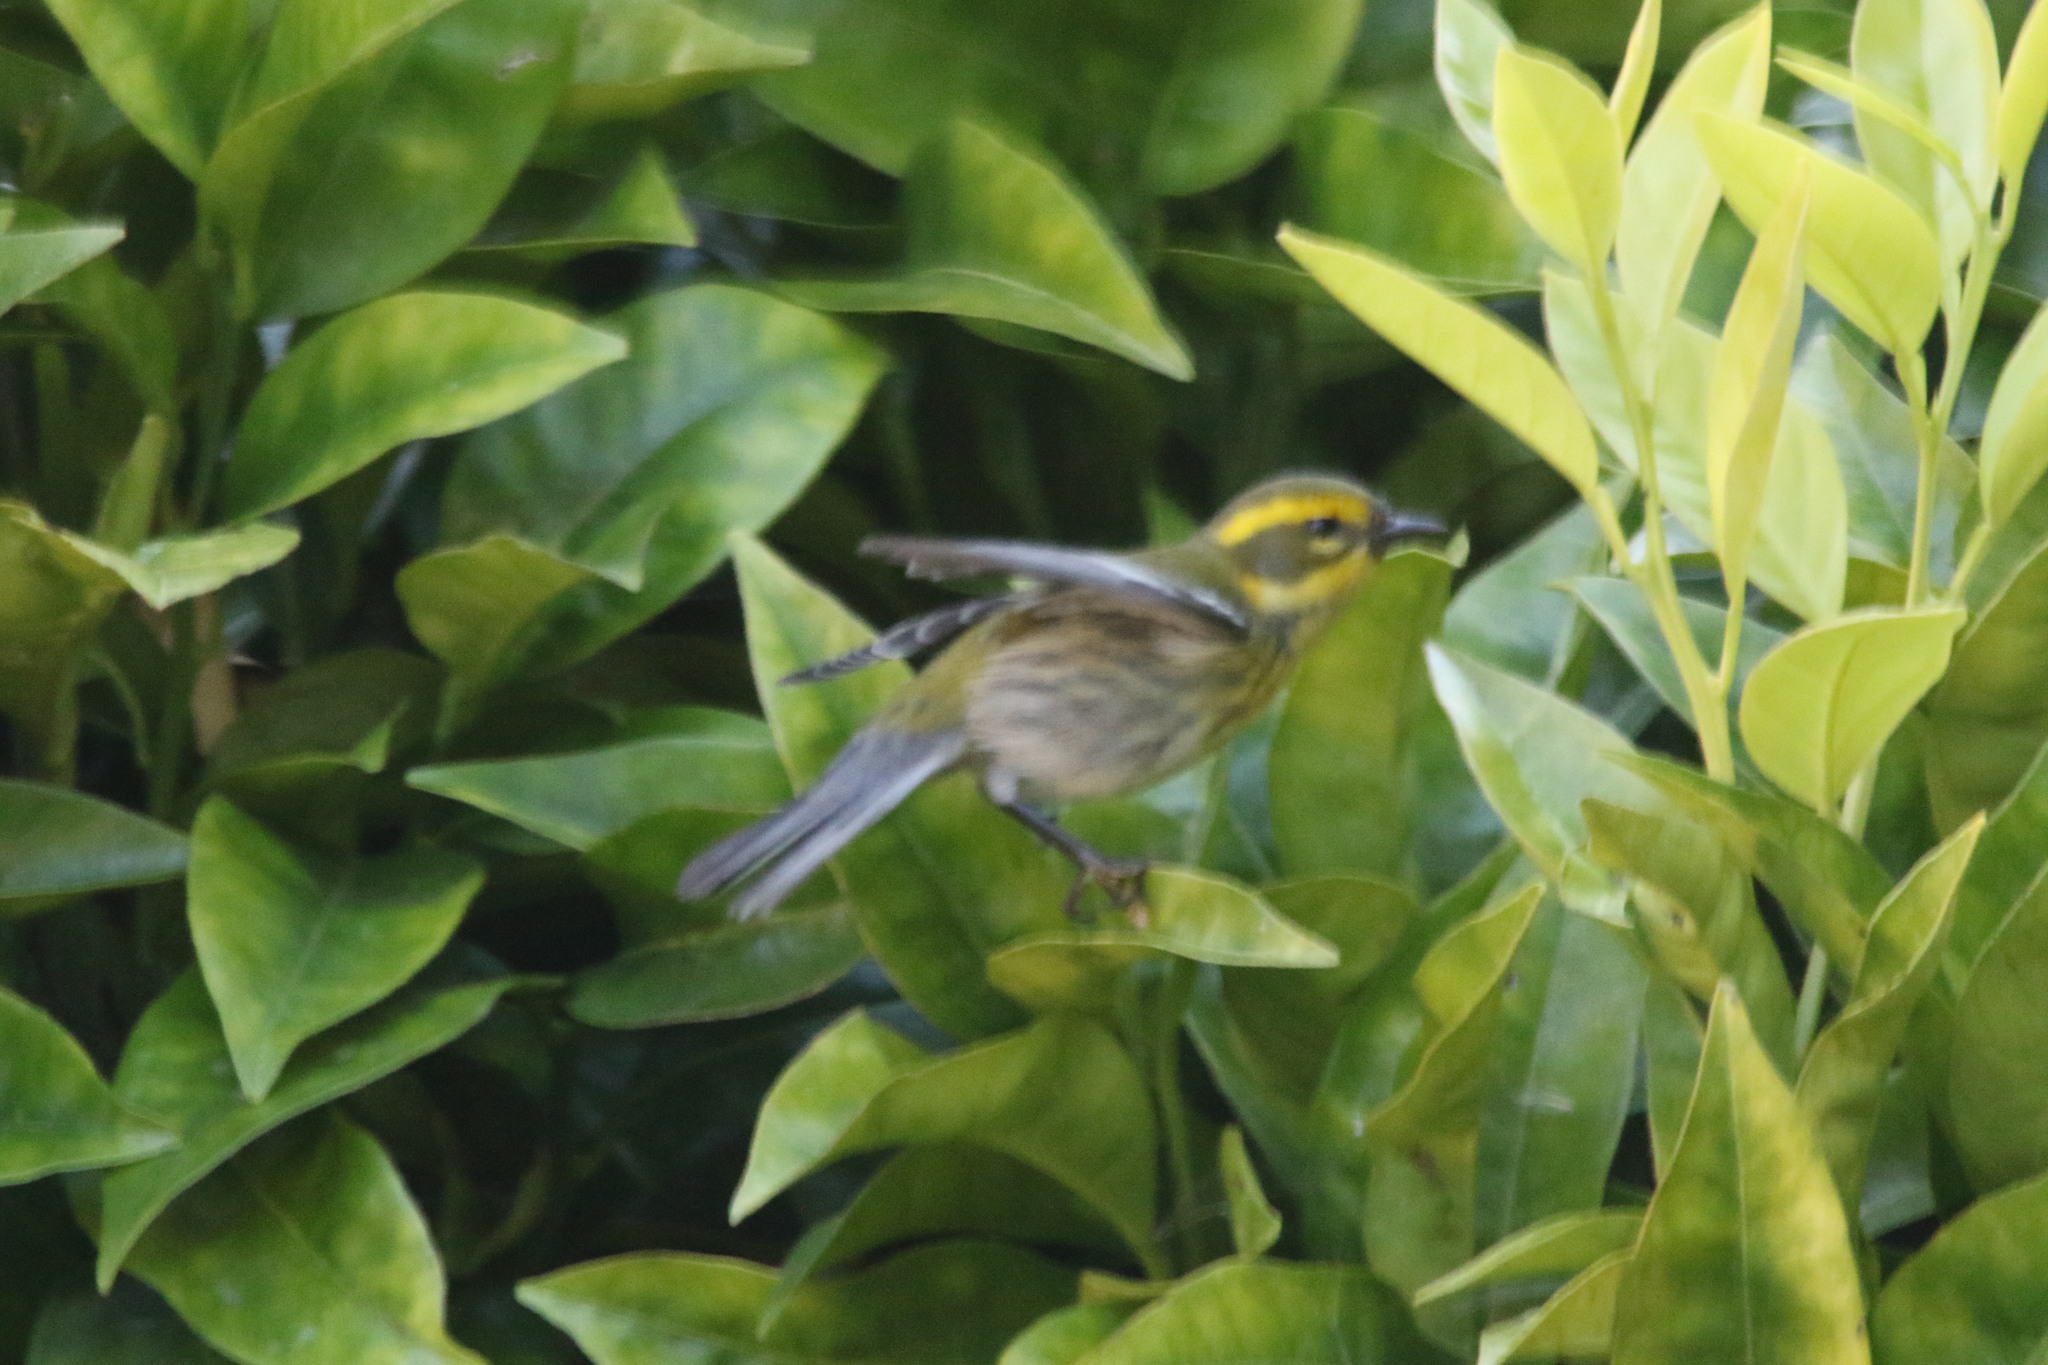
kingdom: Animalia
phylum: Chordata
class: Aves
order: Passeriformes
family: Parulidae
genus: Setophaga
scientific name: Setophaga townsendi
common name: Townsend's warbler
